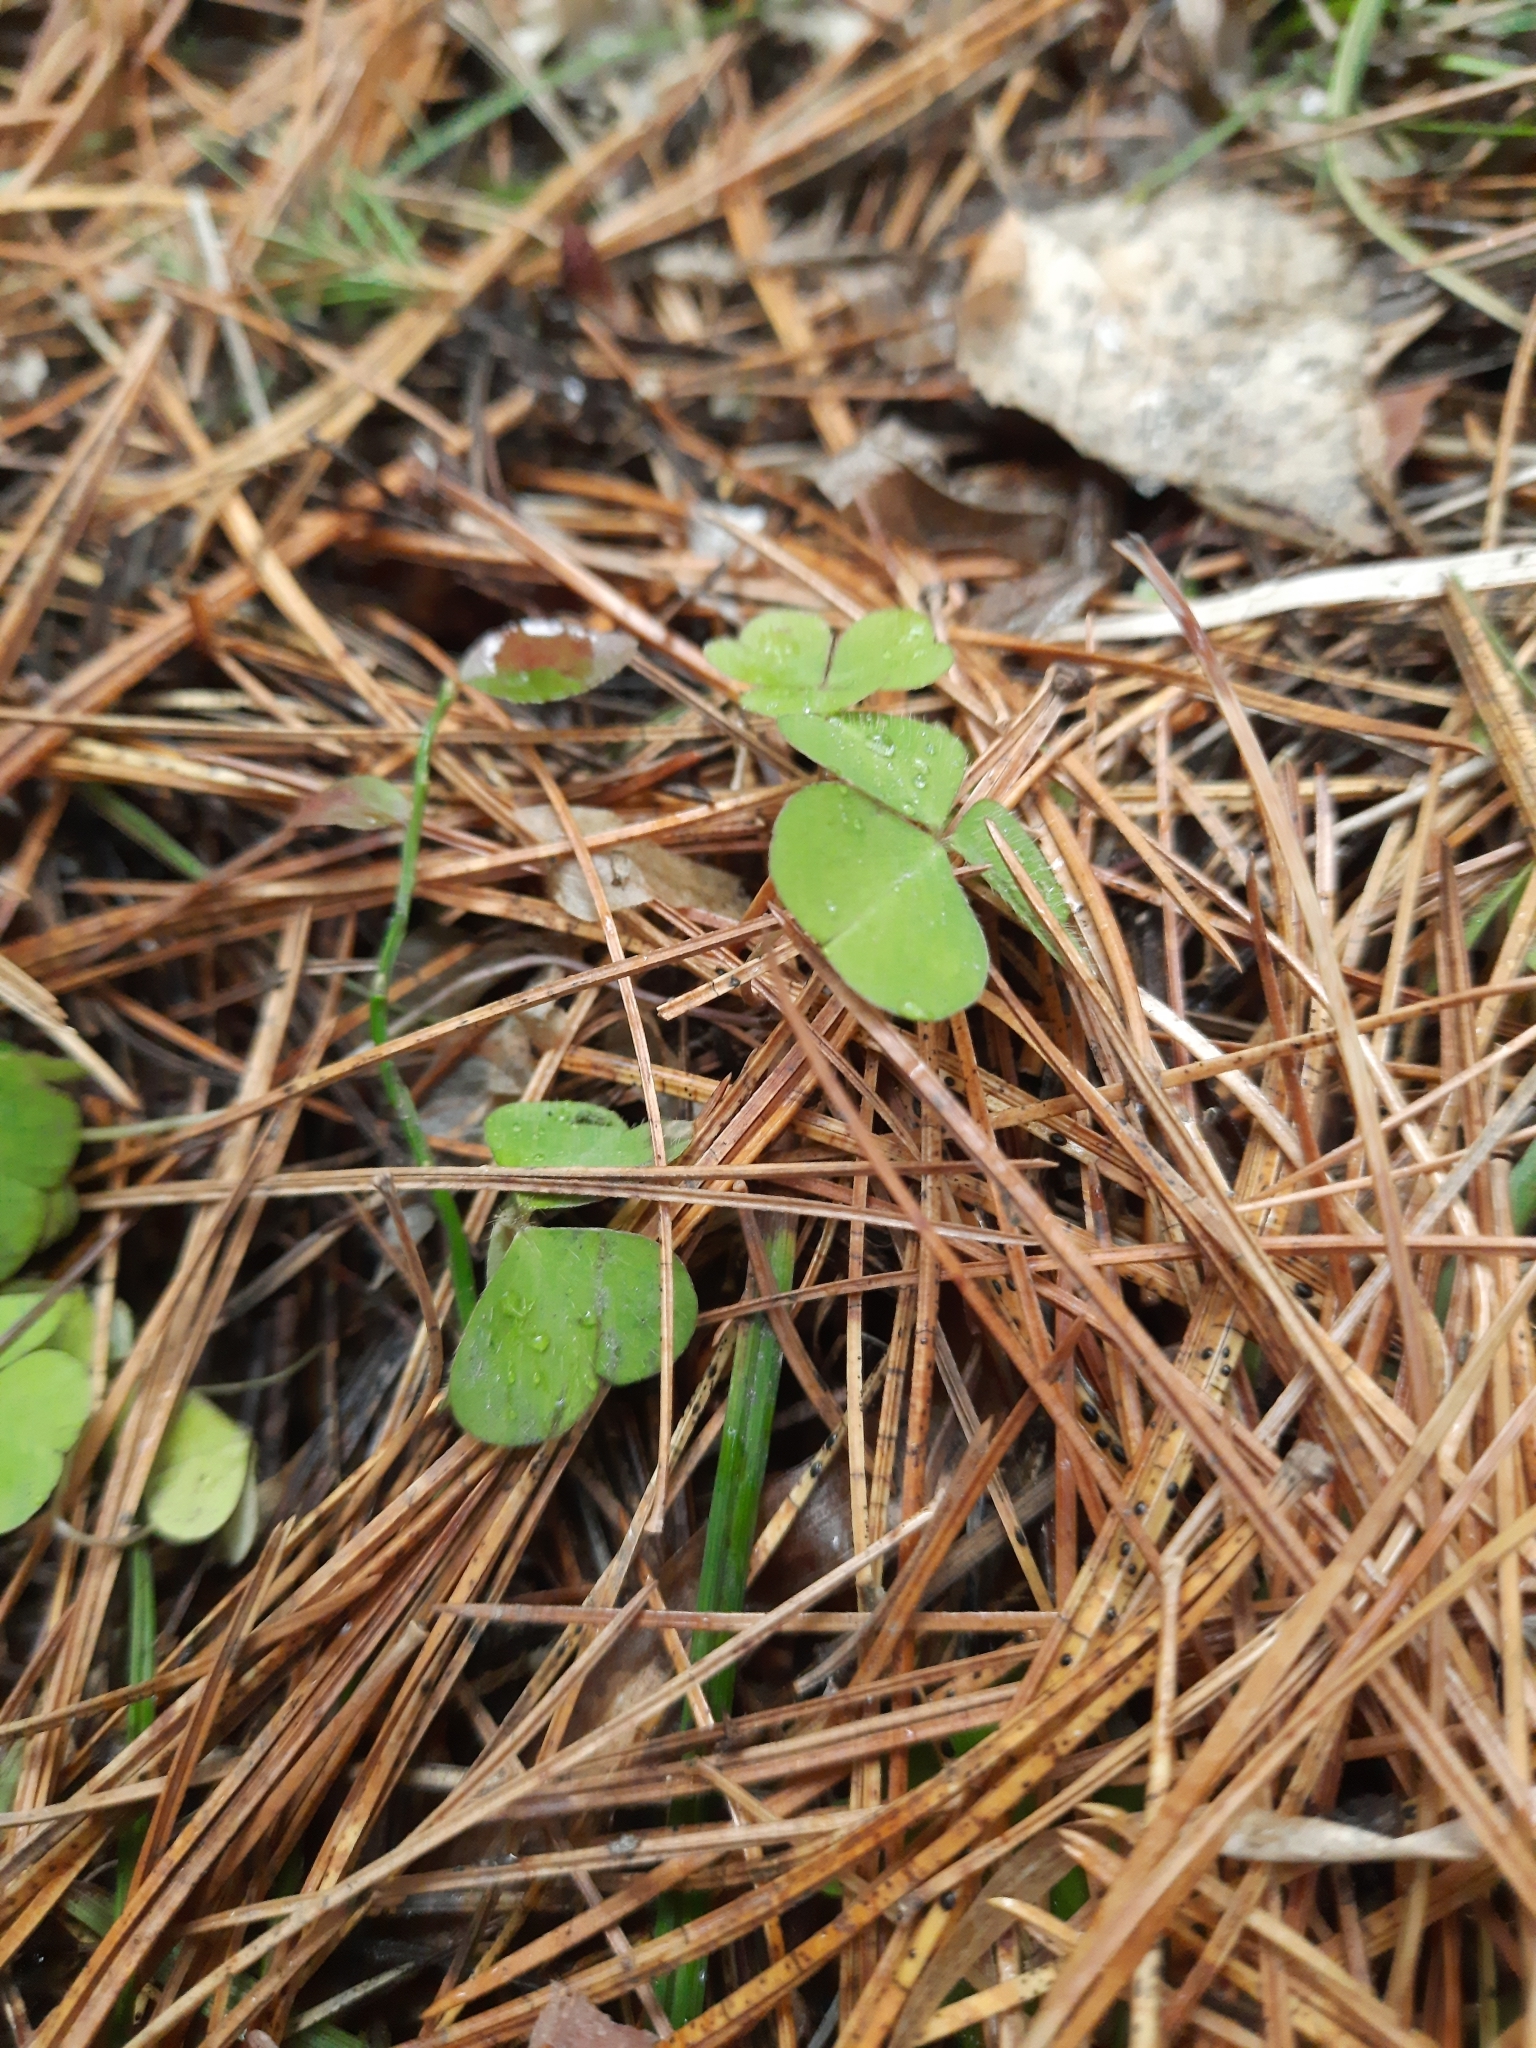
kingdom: Plantae
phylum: Tracheophyta
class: Magnoliopsida
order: Oxalidales
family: Oxalidaceae
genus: Oxalis
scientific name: Oxalis acetosella
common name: Wood-sorrel
